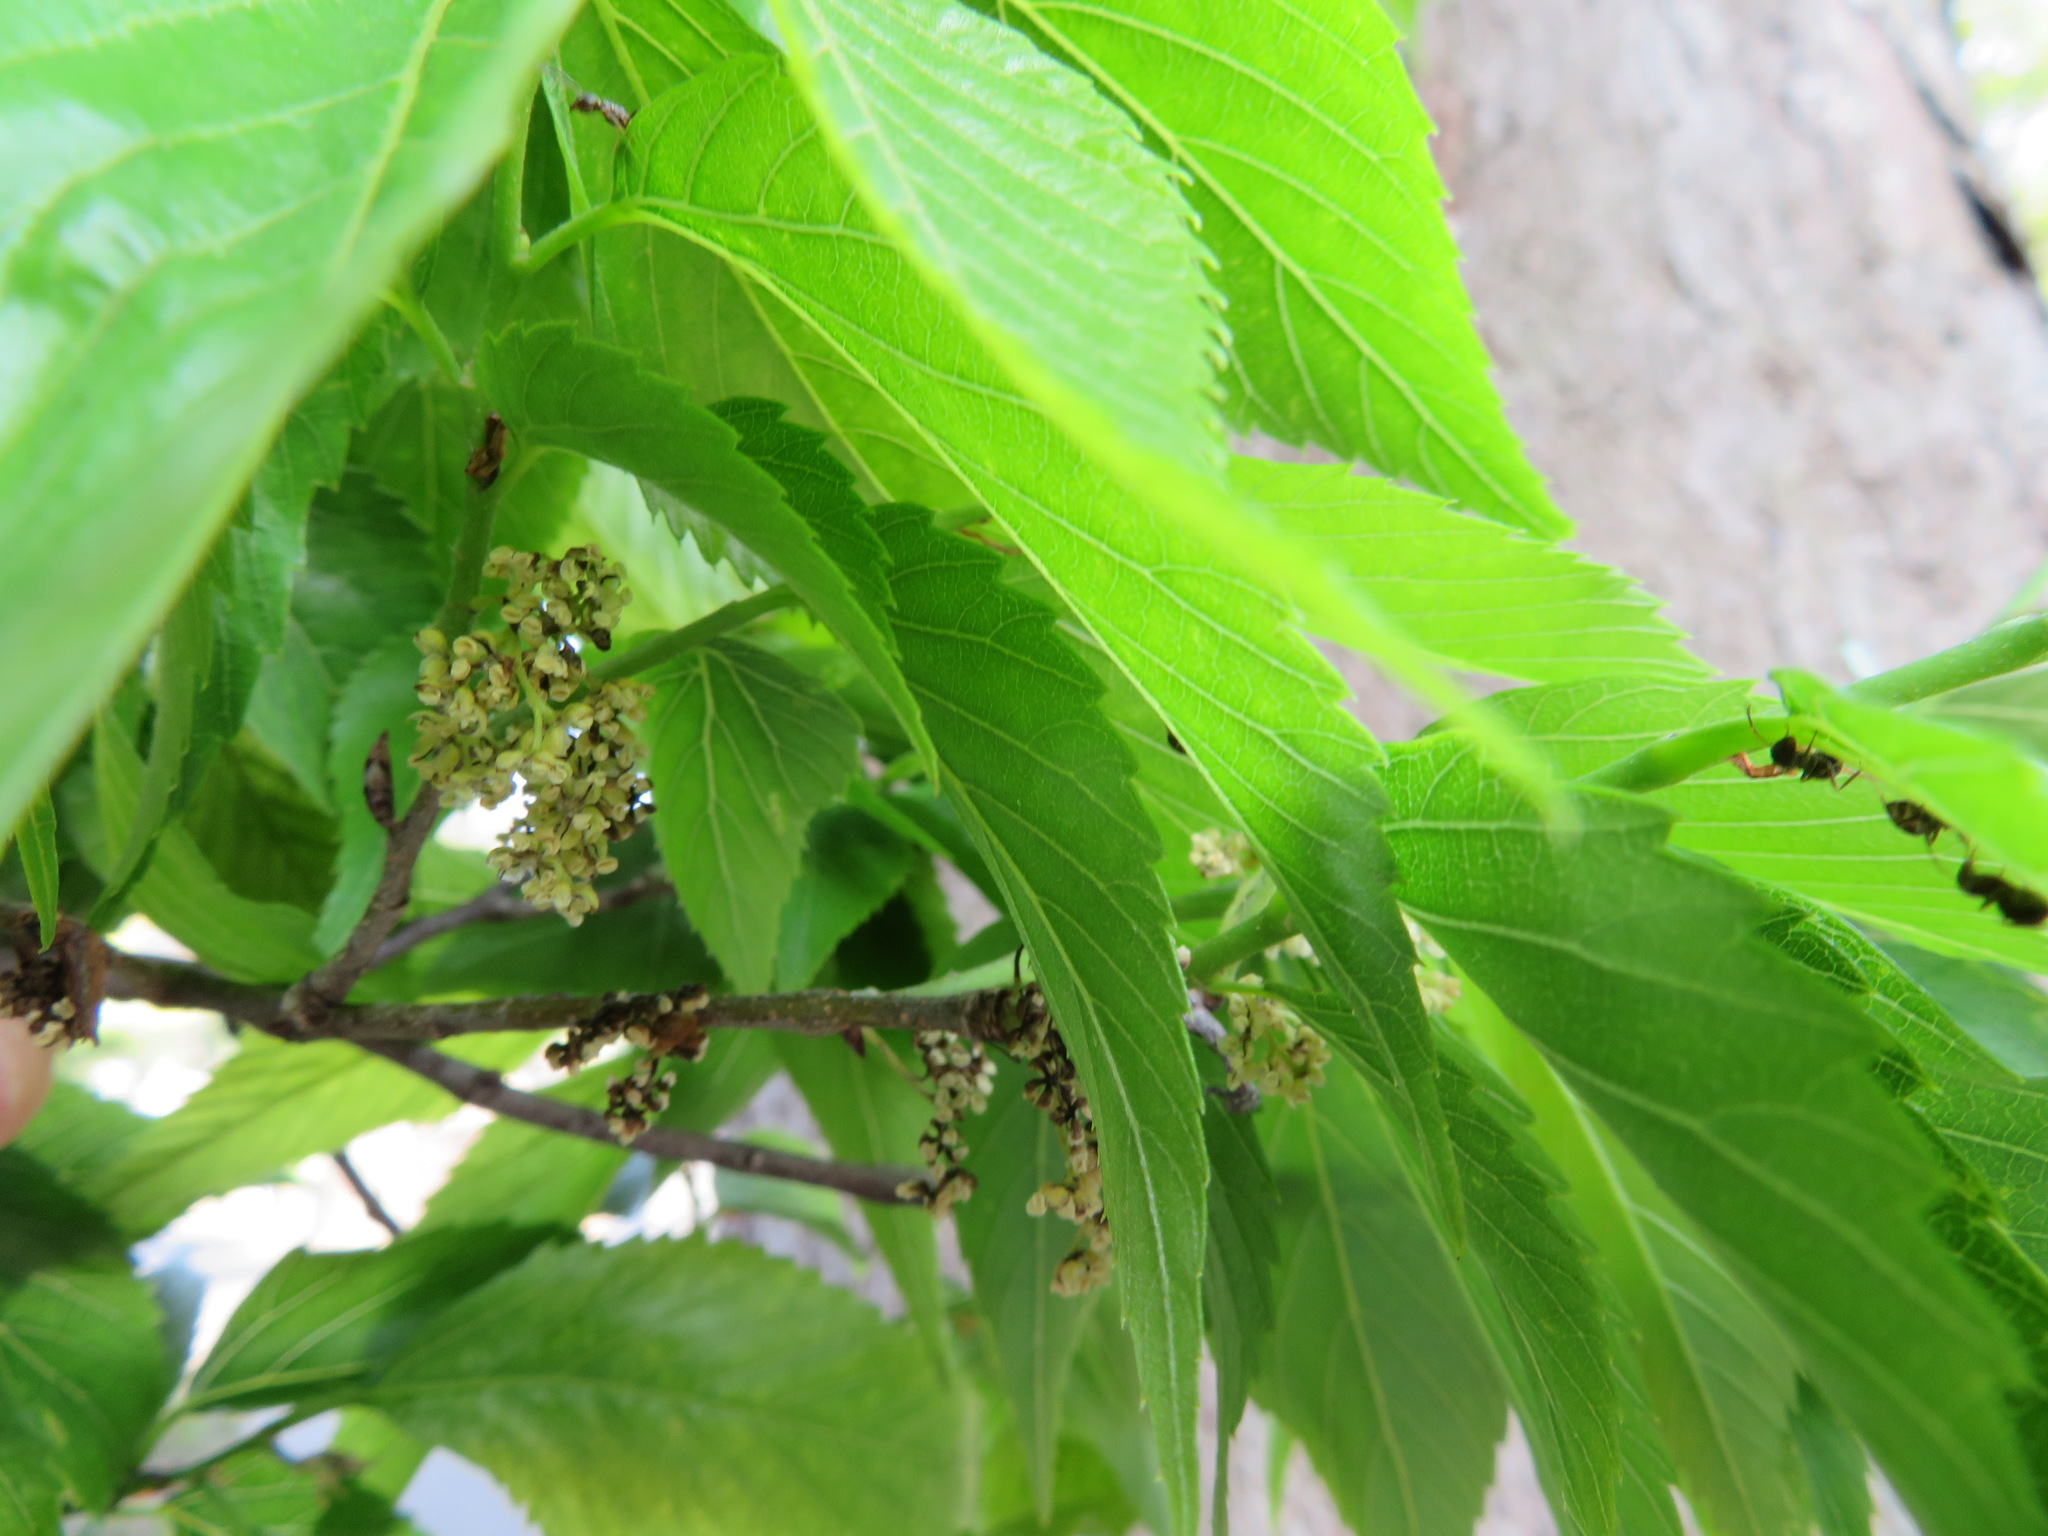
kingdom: Plantae
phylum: Tracheophyta
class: Magnoliopsida
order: Rosales
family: Cannabaceae
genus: Aphananthe
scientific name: Aphananthe aspera
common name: Mukutree
